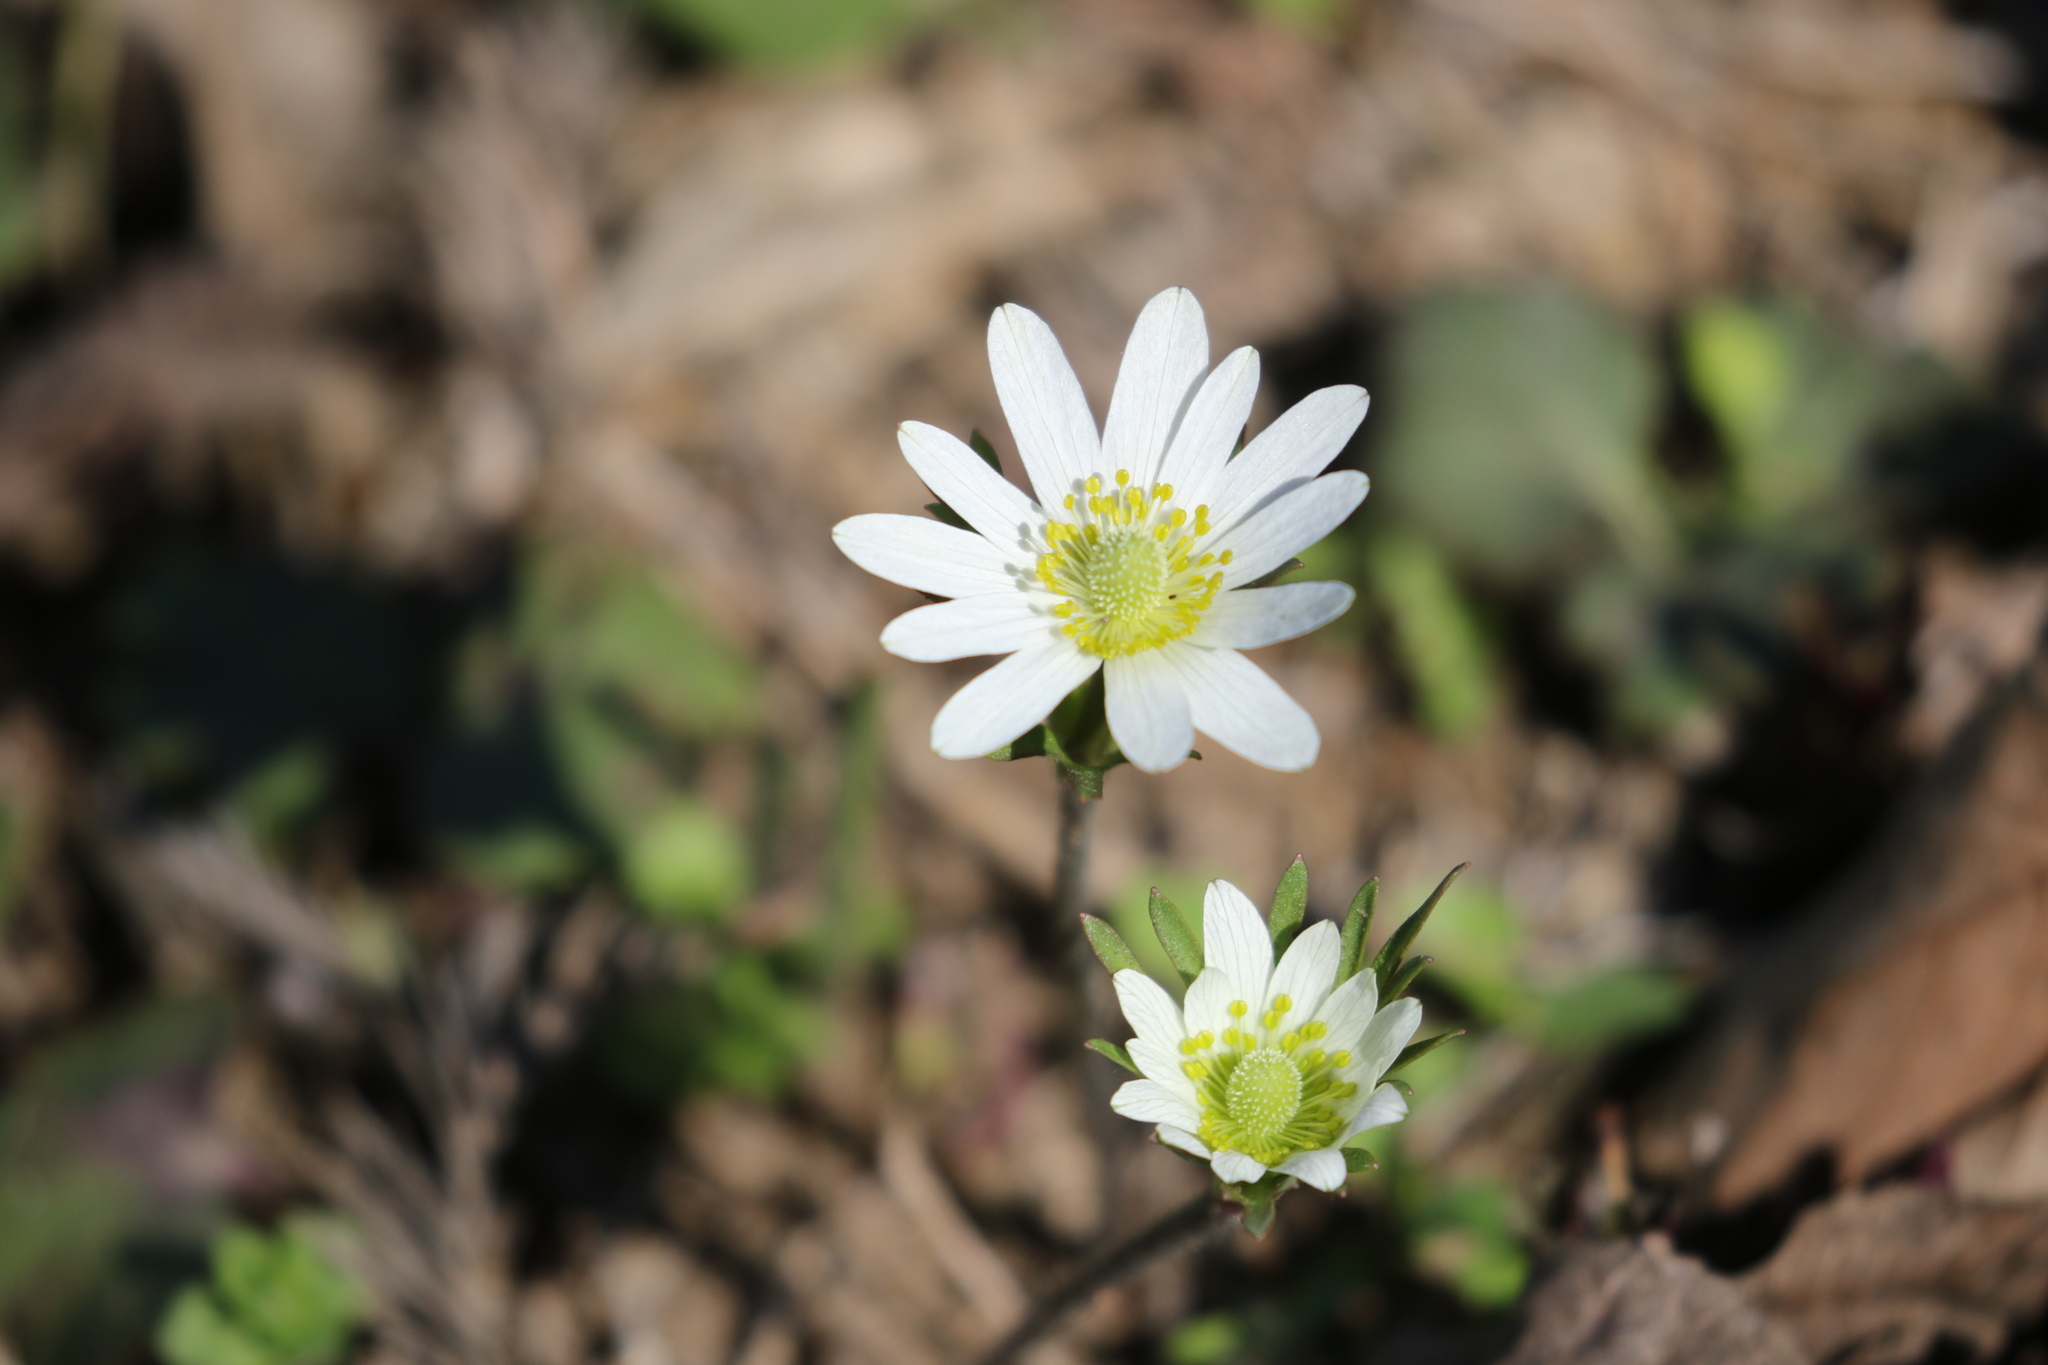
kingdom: Plantae
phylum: Tracheophyta
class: Magnoliopsida
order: Ranunculales
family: Ranunculaceae
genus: Anemone
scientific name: Anemone berlandieri
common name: Ten-petal anemone
